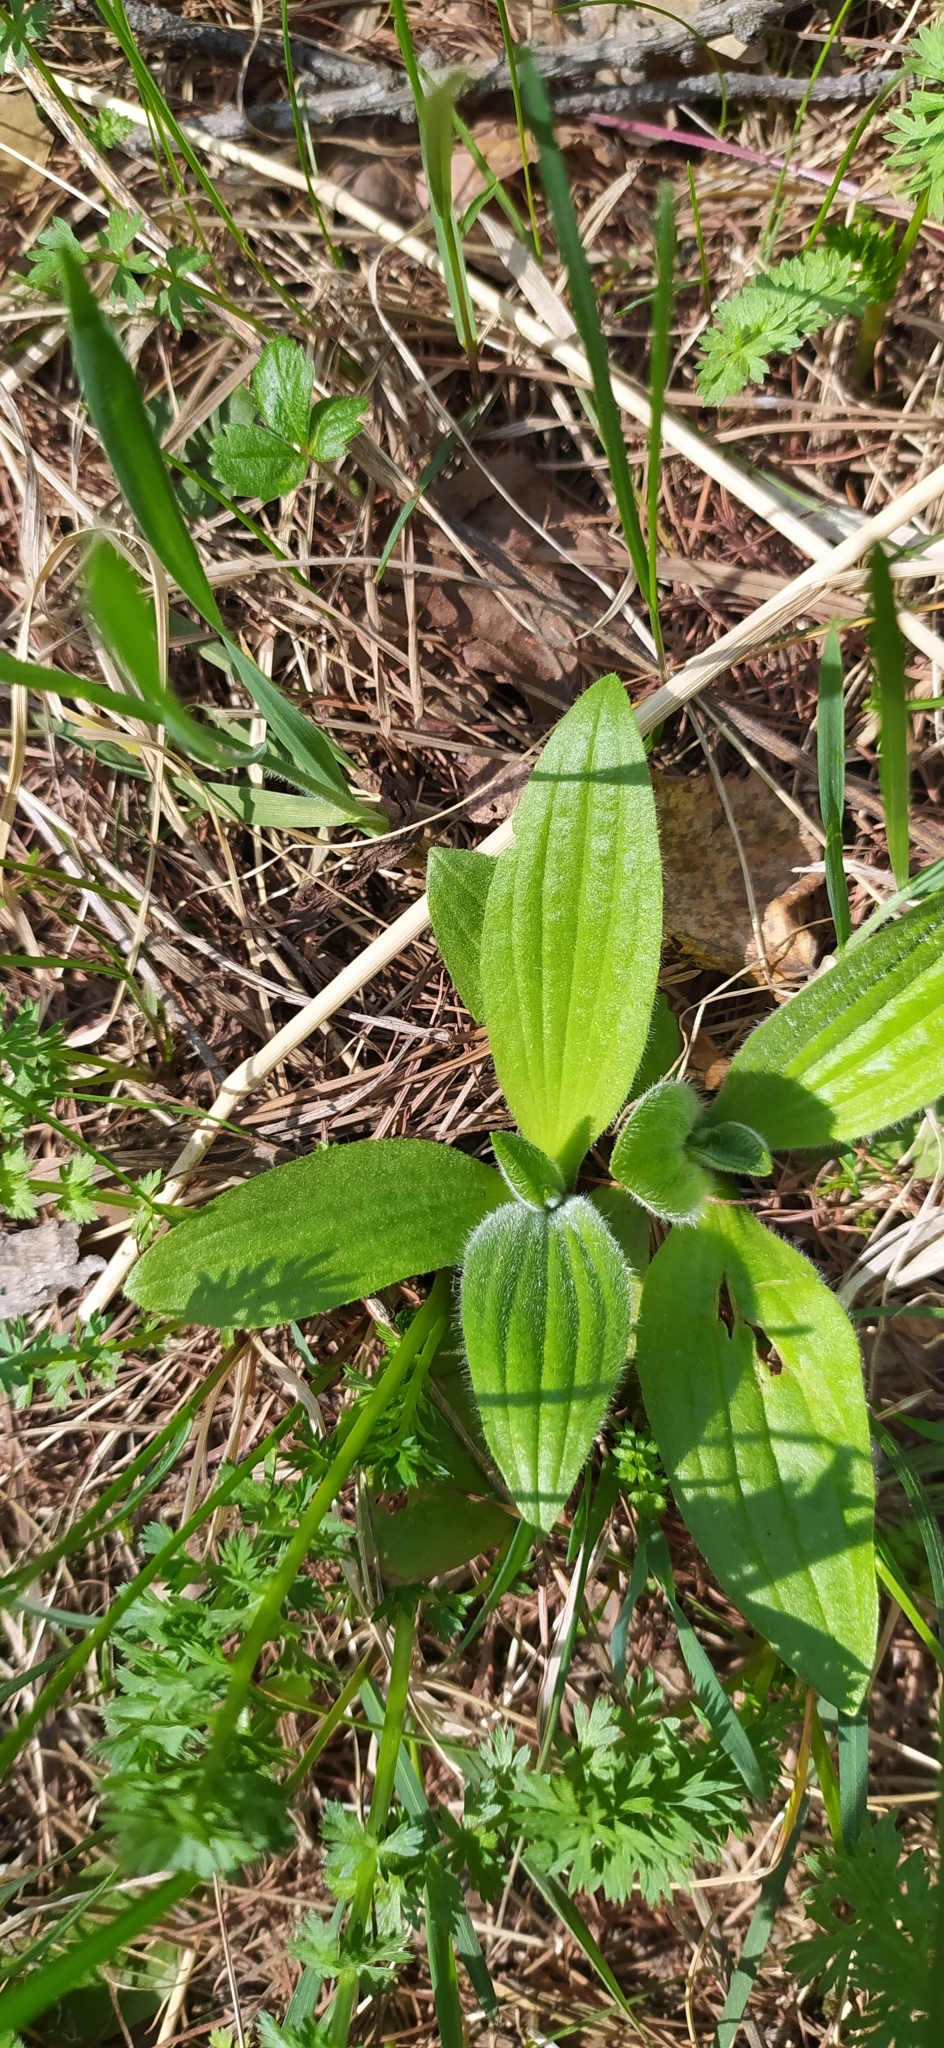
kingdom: Plantae
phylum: Tracheophyta
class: Magnoliopsida
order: Lamiales
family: Plantaginaceae
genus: Plantago
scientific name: Plantago media
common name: Hoary plantain
